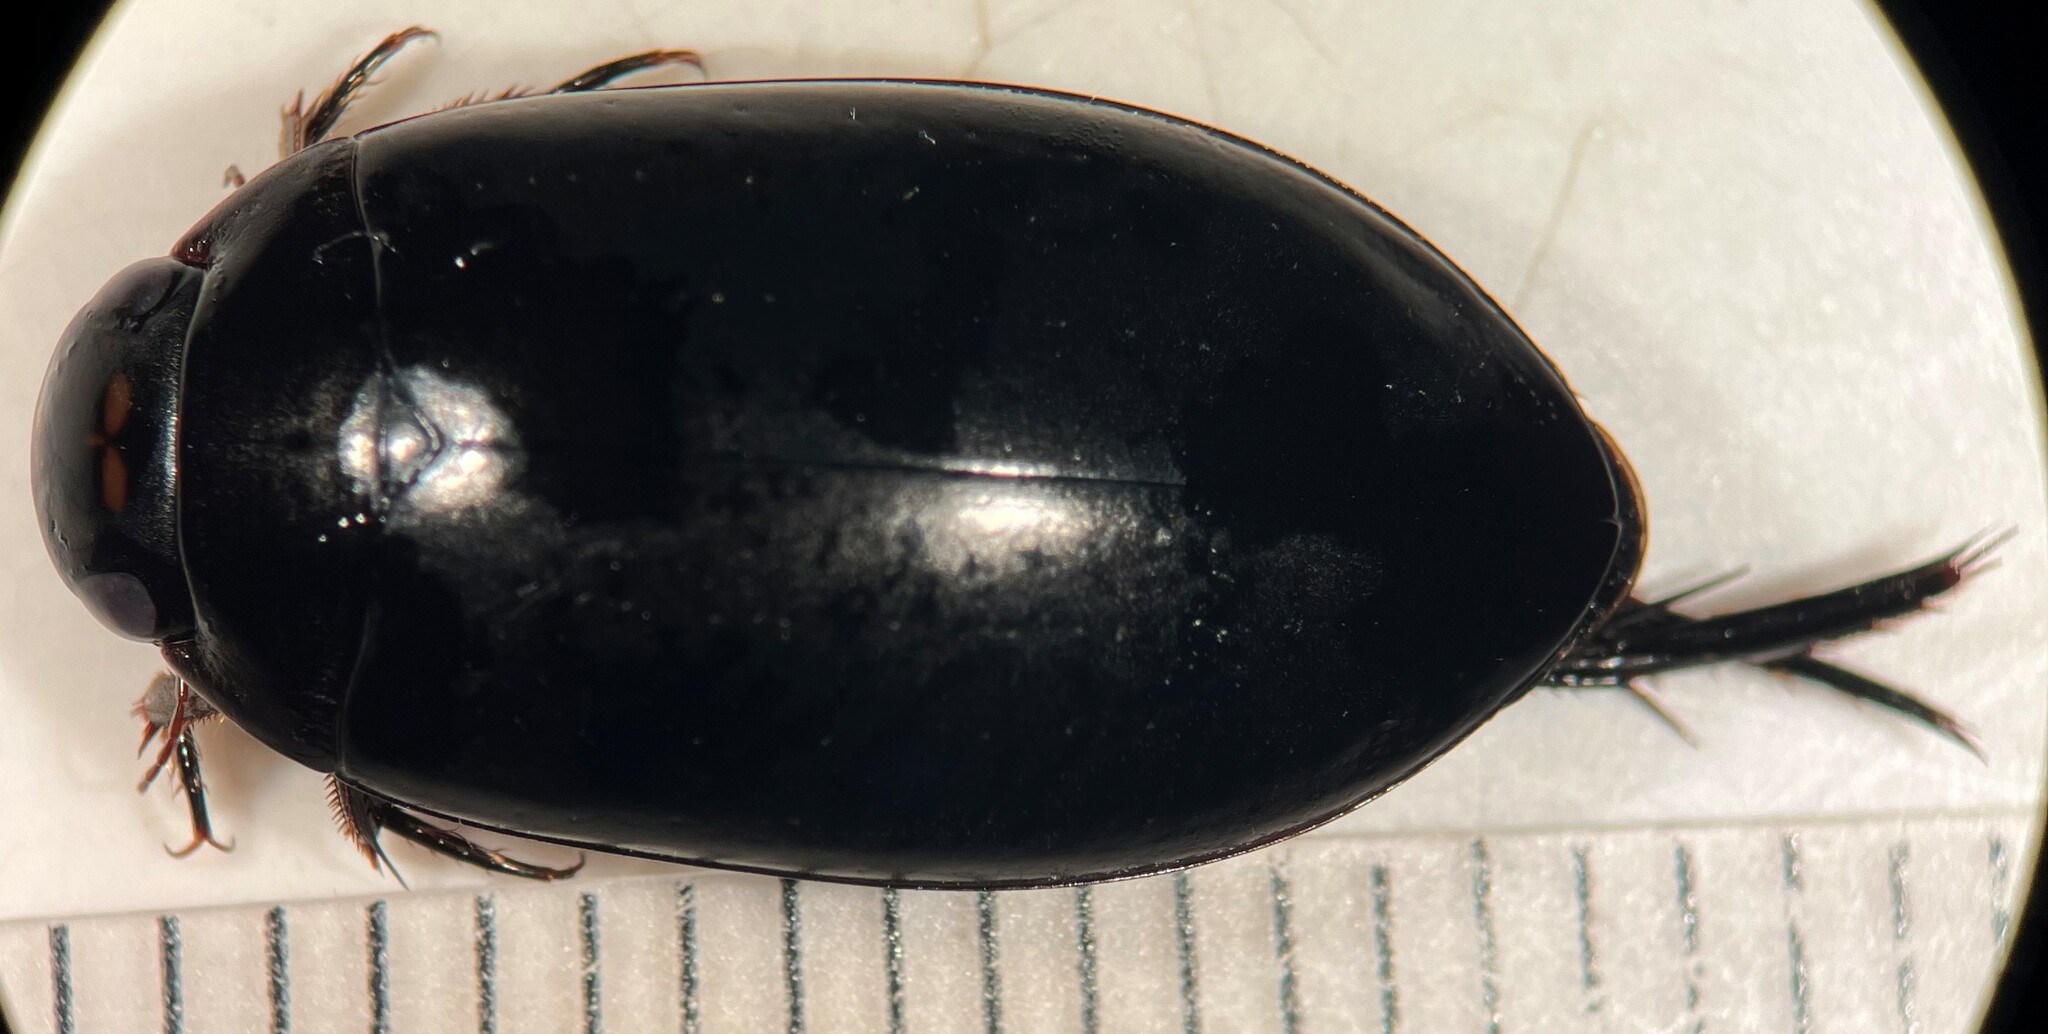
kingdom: Animalia
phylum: Arthropoda
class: Insecta
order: Coleoptera
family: Dytiscidae
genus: Rhantus
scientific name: Rhantus atricolor
